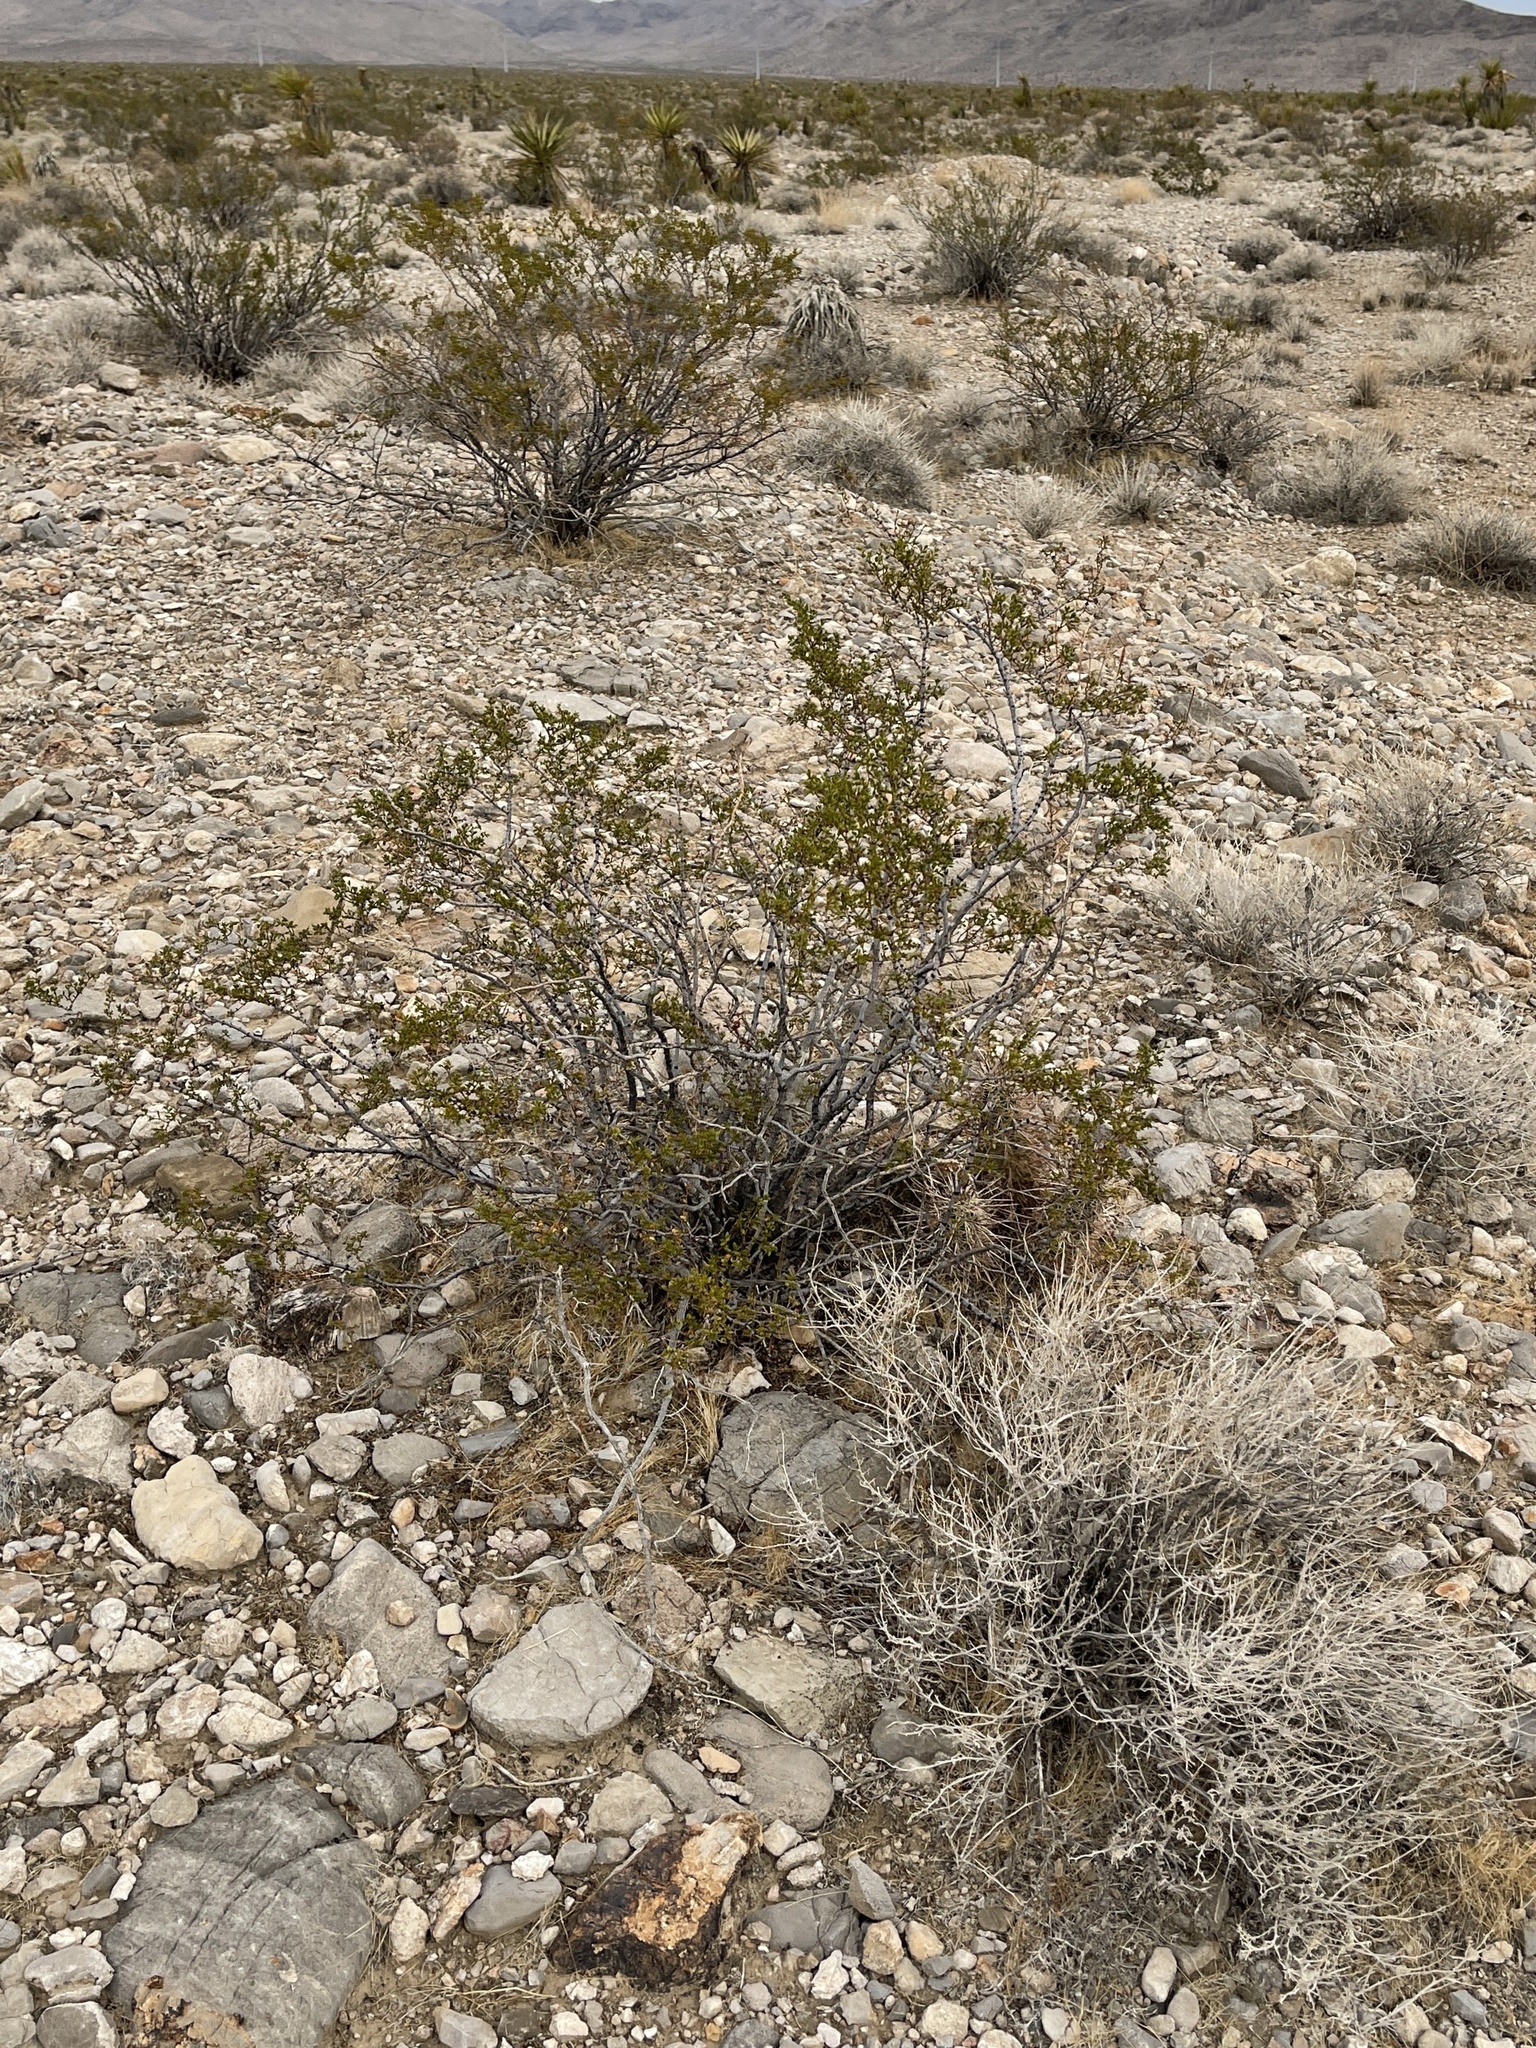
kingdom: Plantae
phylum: Tracheophyta
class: Magnoliopsida
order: Zygophyllales
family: Zygophyllaceae
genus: Larrea
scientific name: Larrea tridentata
